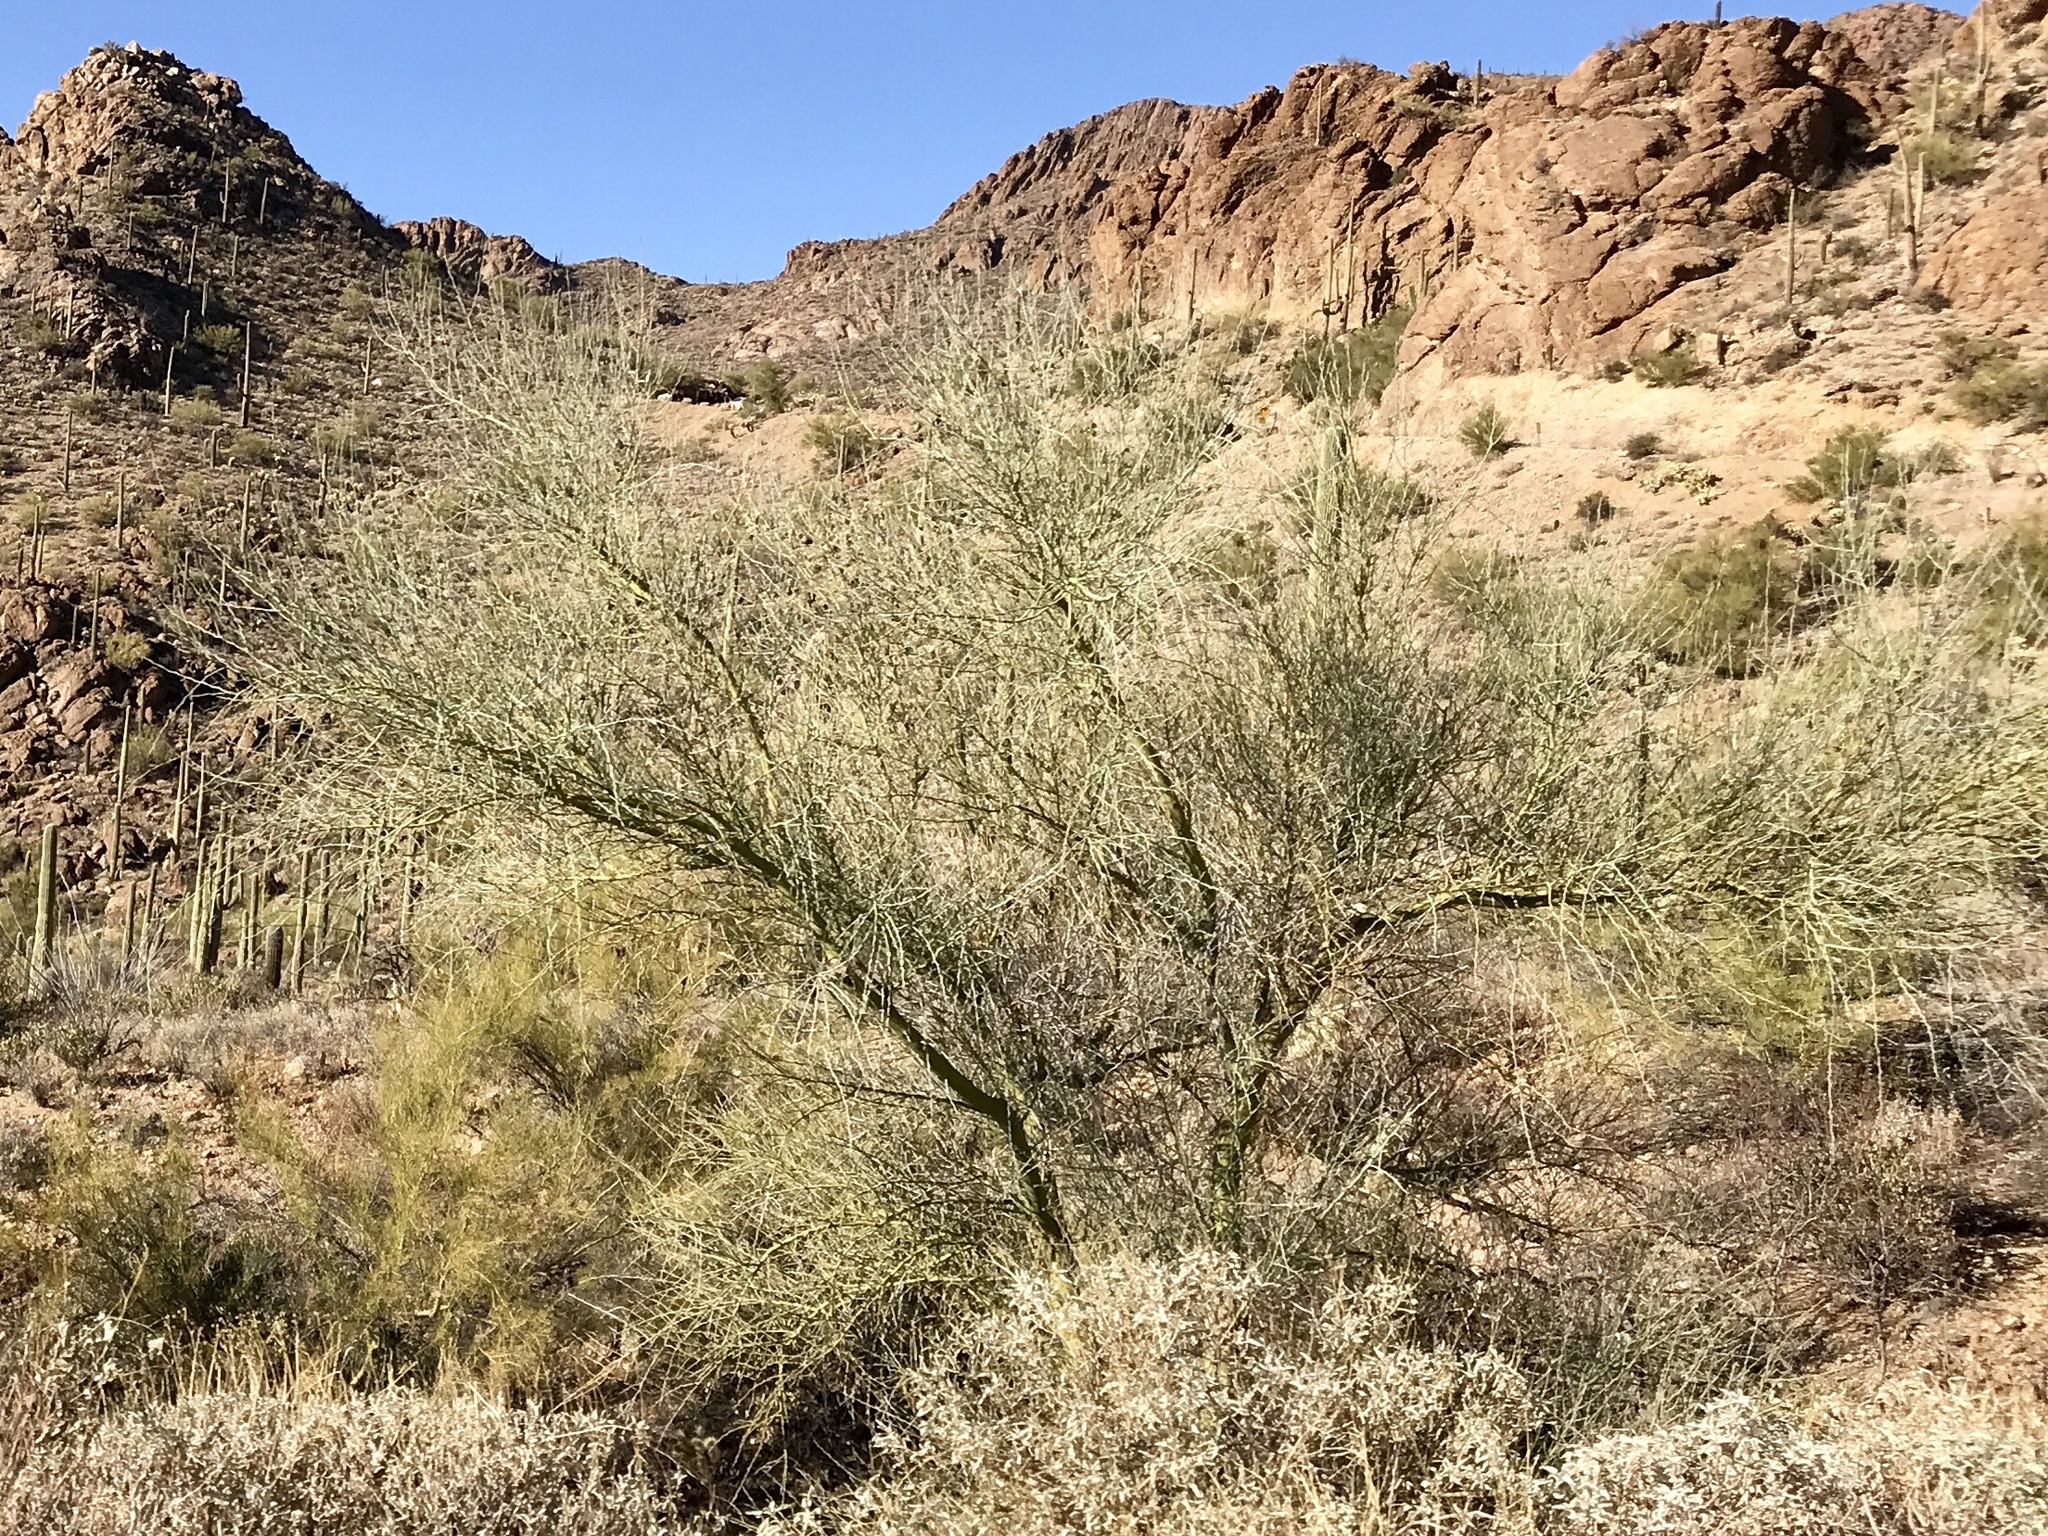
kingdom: Plantae
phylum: Tracheophyta
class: Magnoliopsida
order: Fabales
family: Fabaceae
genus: Parkinsonia
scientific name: Parkinsonia florida
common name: Blue paloverde
